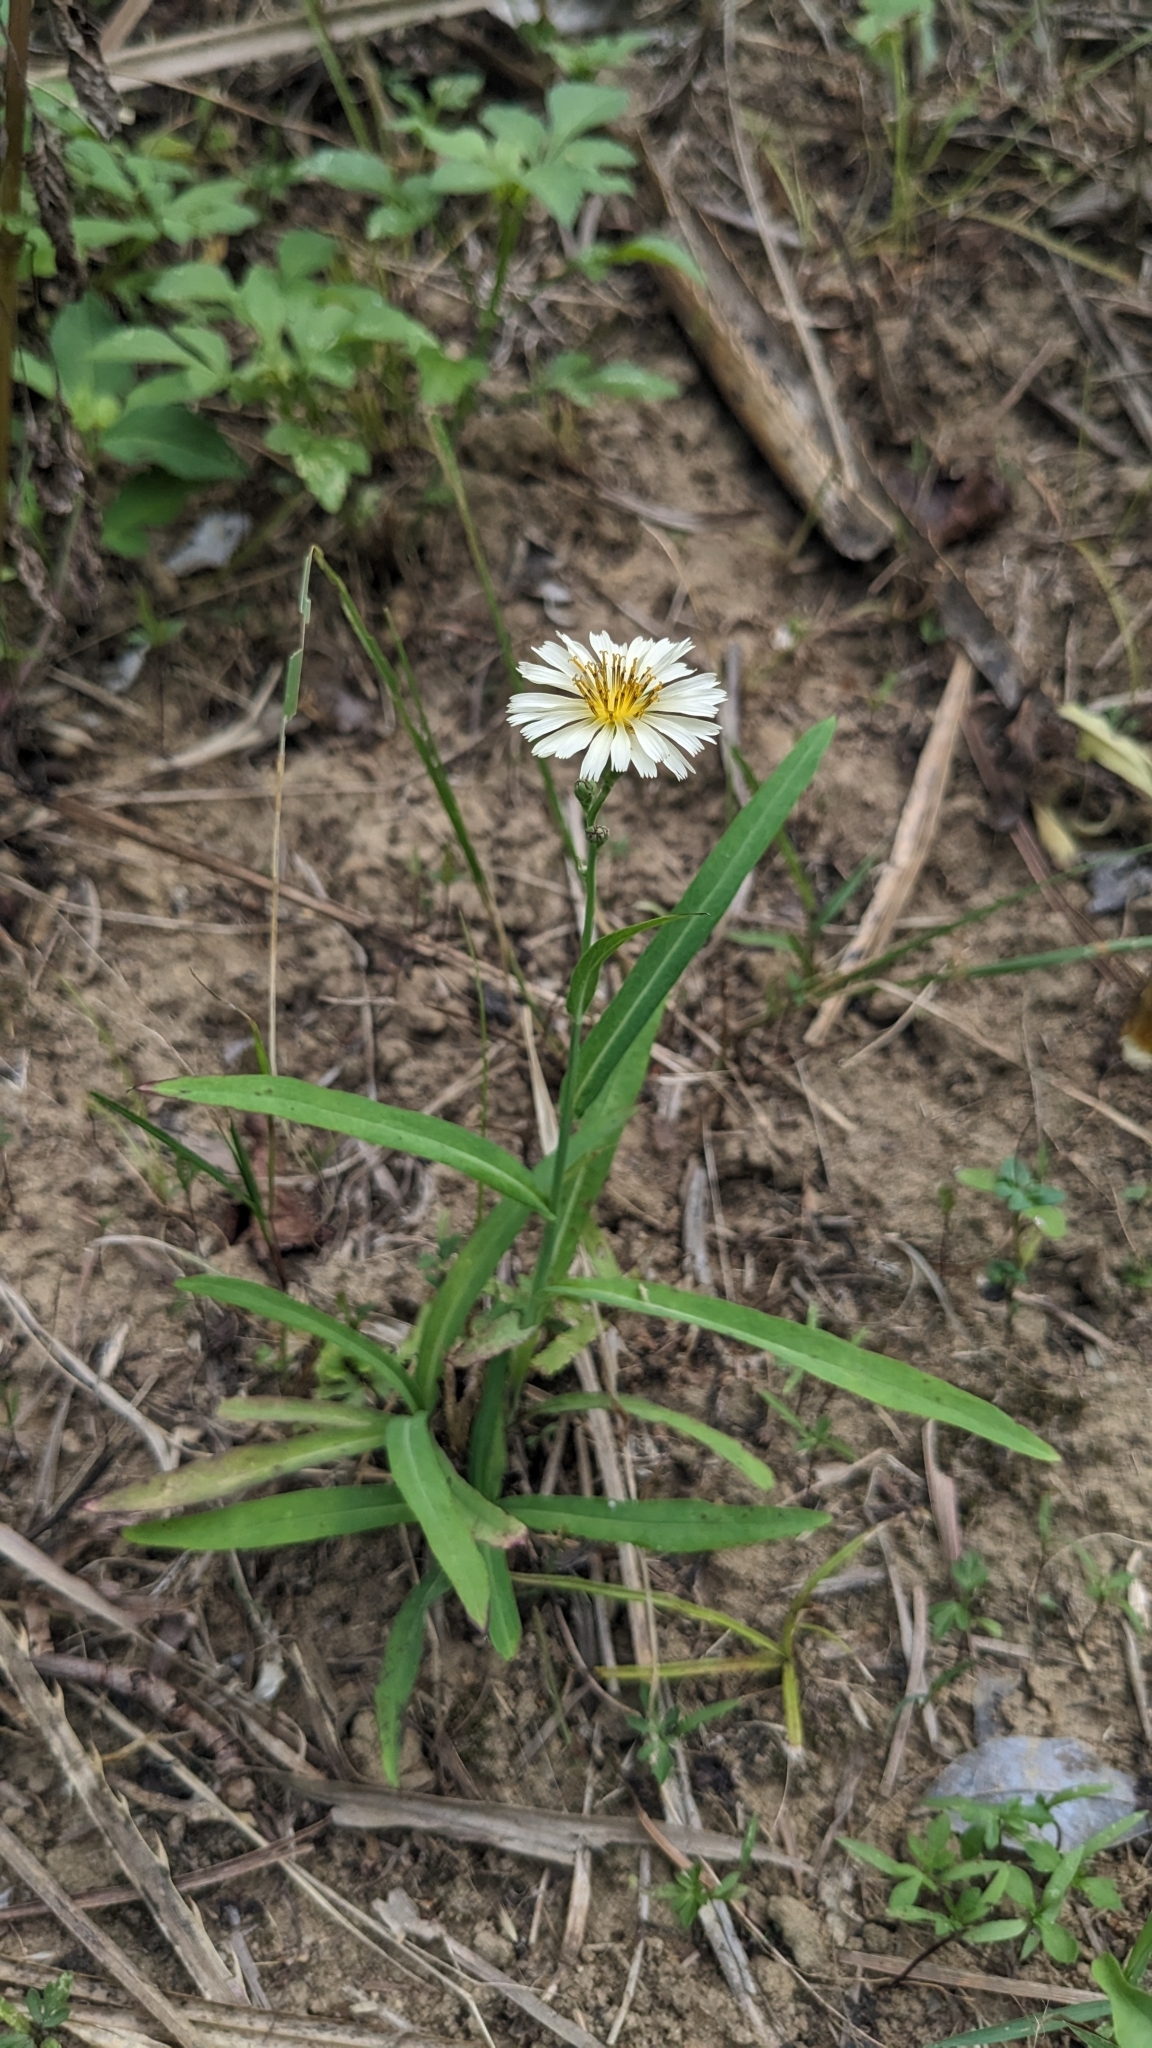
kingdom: Plantae
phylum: Tracheophyta
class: Magnoliopsida
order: Asterales
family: Asteraceae
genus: Lactuca
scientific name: Lactuca indica
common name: Wild lettuce
